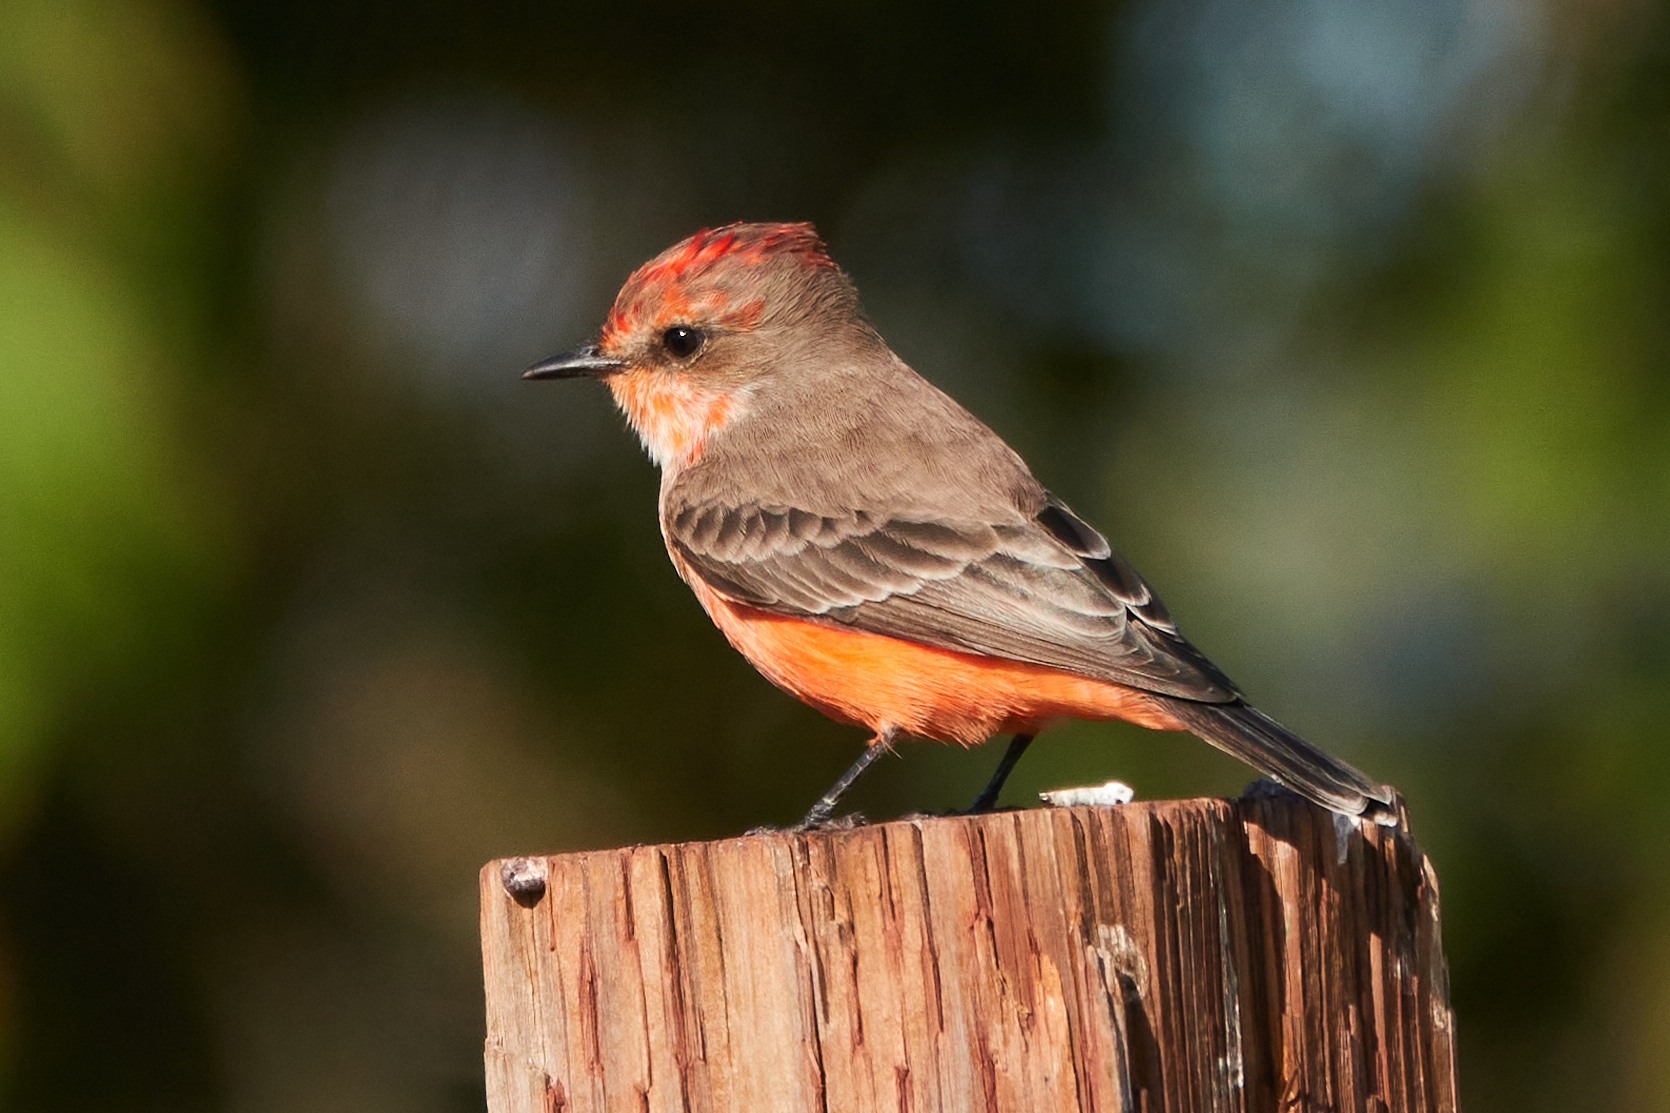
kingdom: Animalia
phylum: Chordata
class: Aves
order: Passeriformes
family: Tyrannidae
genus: Pyrocephalus
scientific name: Pyrocephalus rubinus
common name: Vermilion flycatcher
